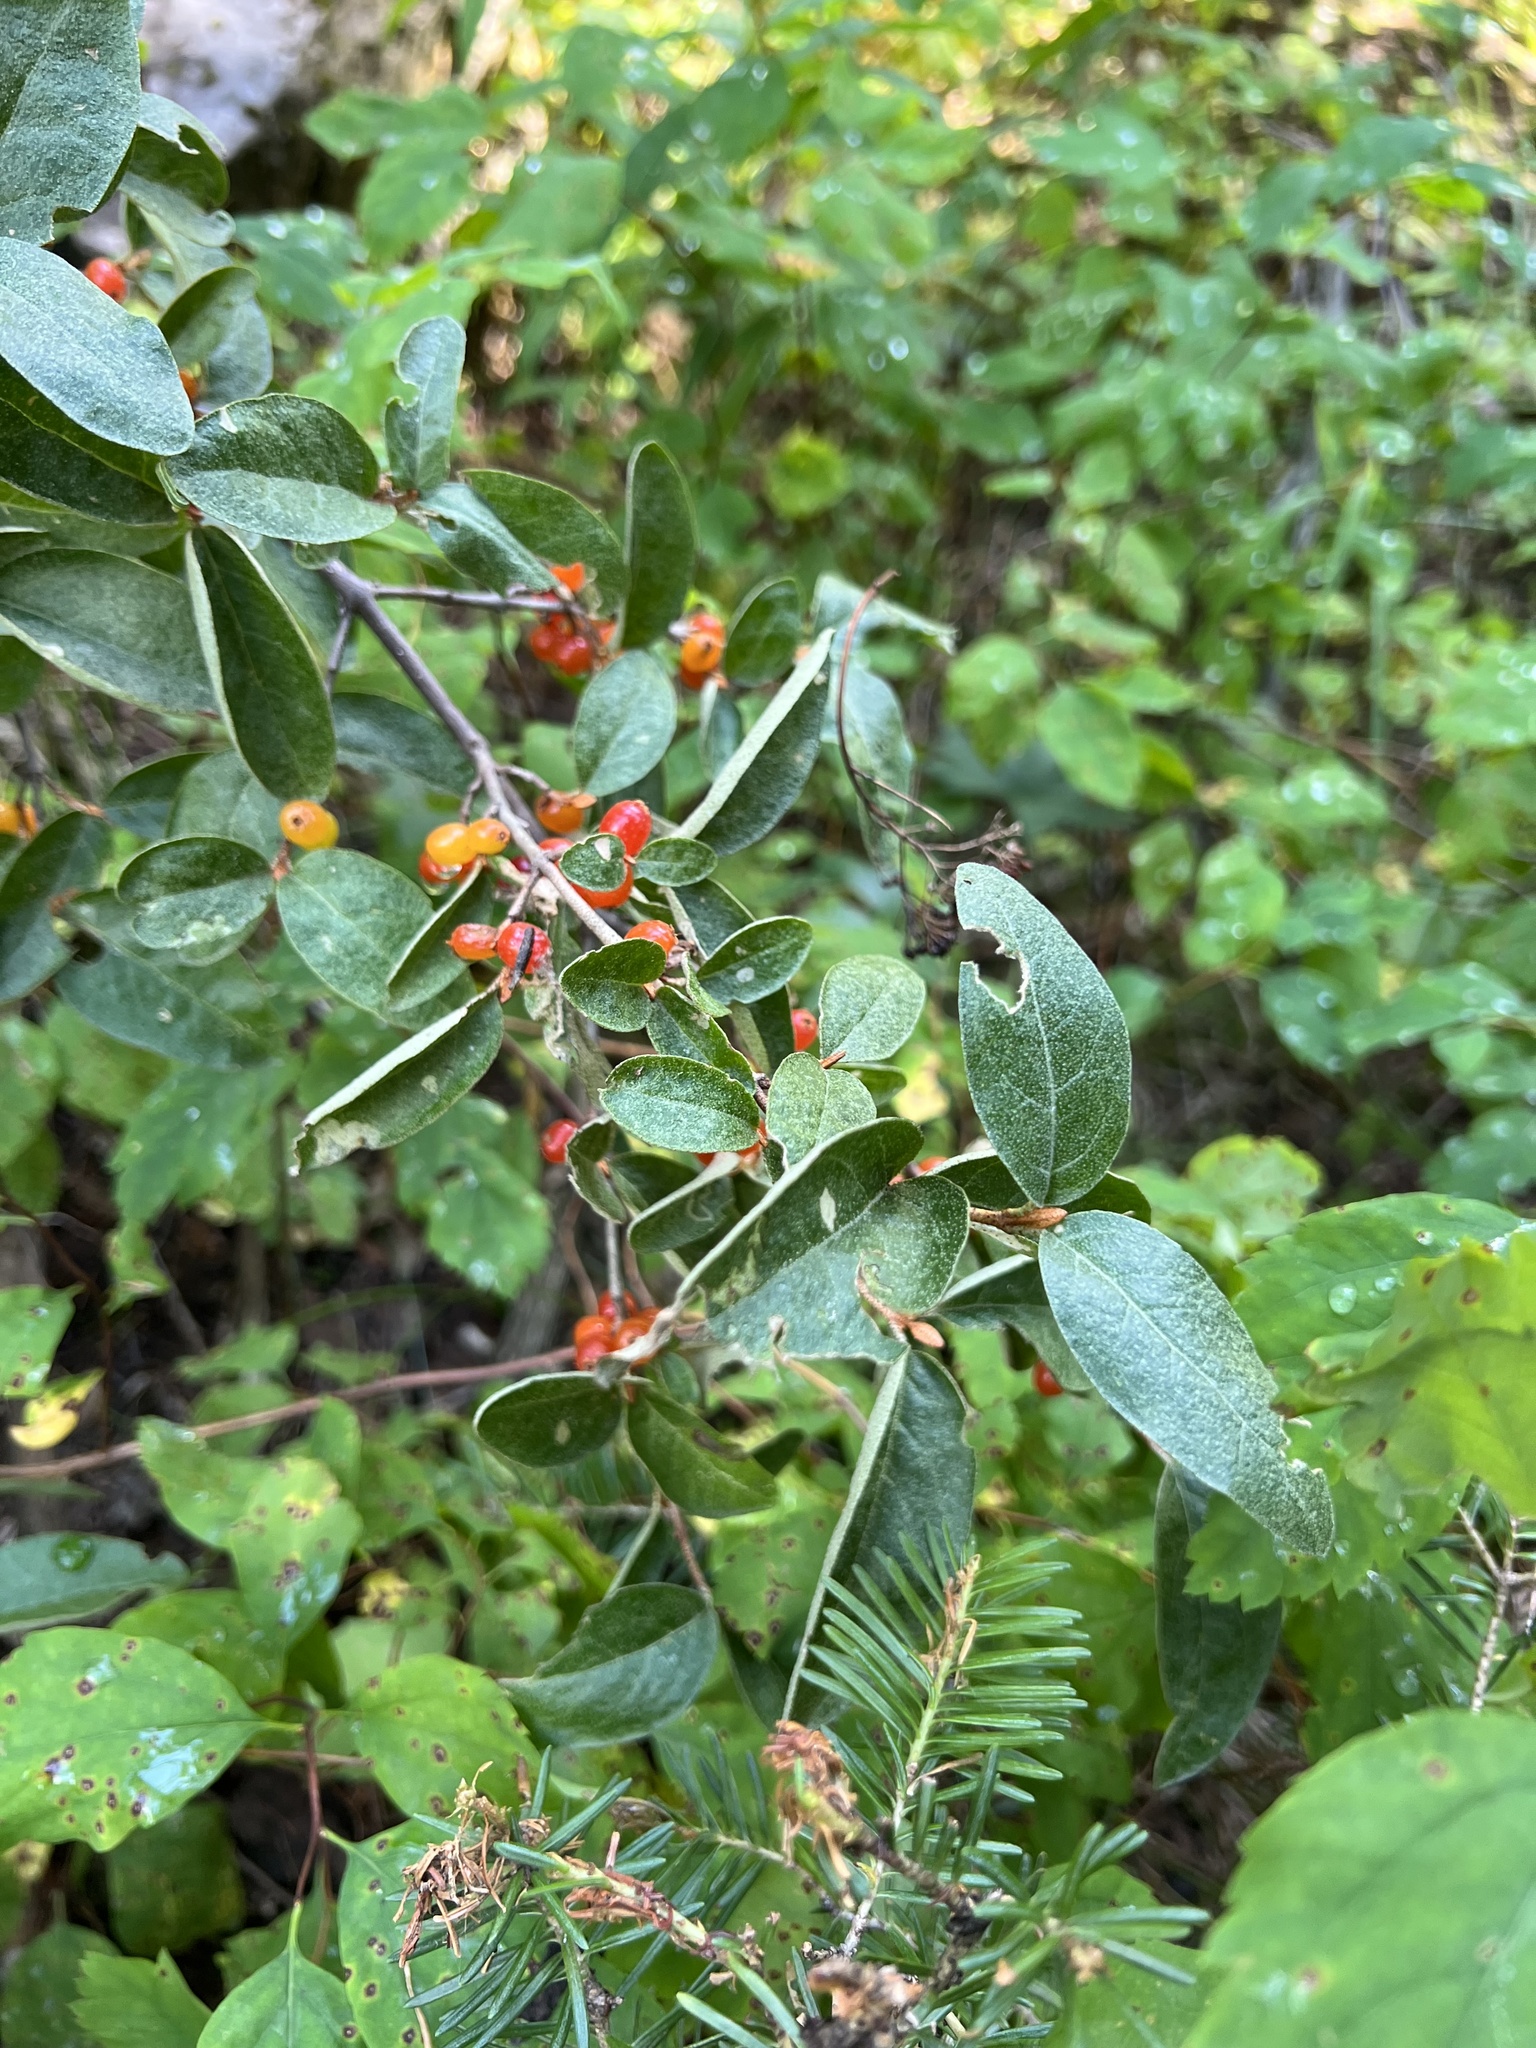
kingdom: Plantae
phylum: Tracheophyta
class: Magnoliopsida
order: Rosales
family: Elaeagnaceae
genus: Shepherdia
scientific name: Shepherdia canadensis
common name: Soapberry
